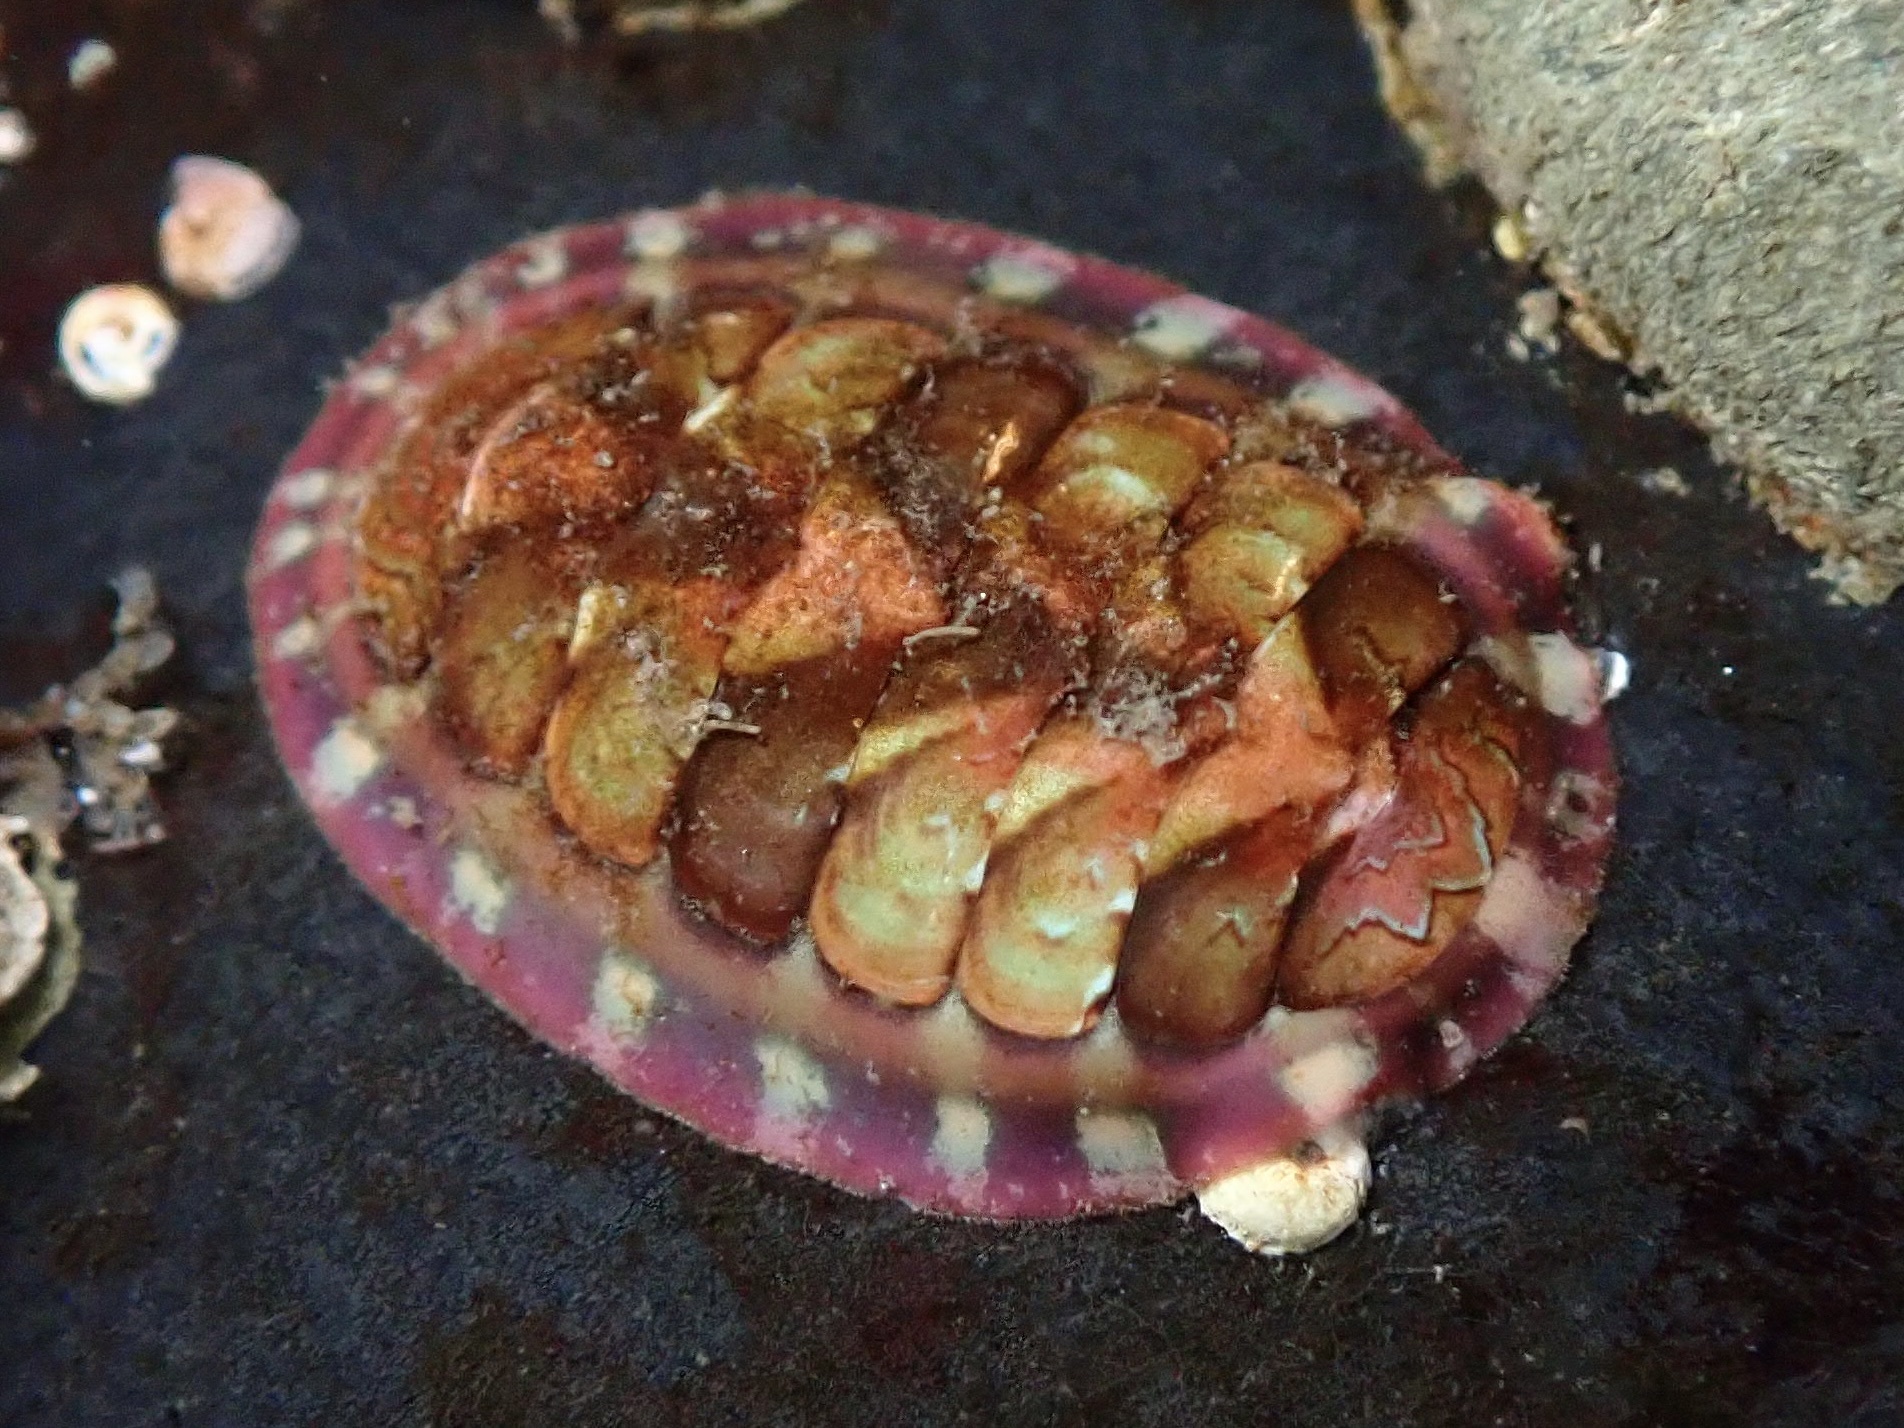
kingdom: Animalia
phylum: Mollusca
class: Polyplacophora
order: Chitonida
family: Tonicellidae
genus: Tonicella
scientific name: Tonicella lokii
